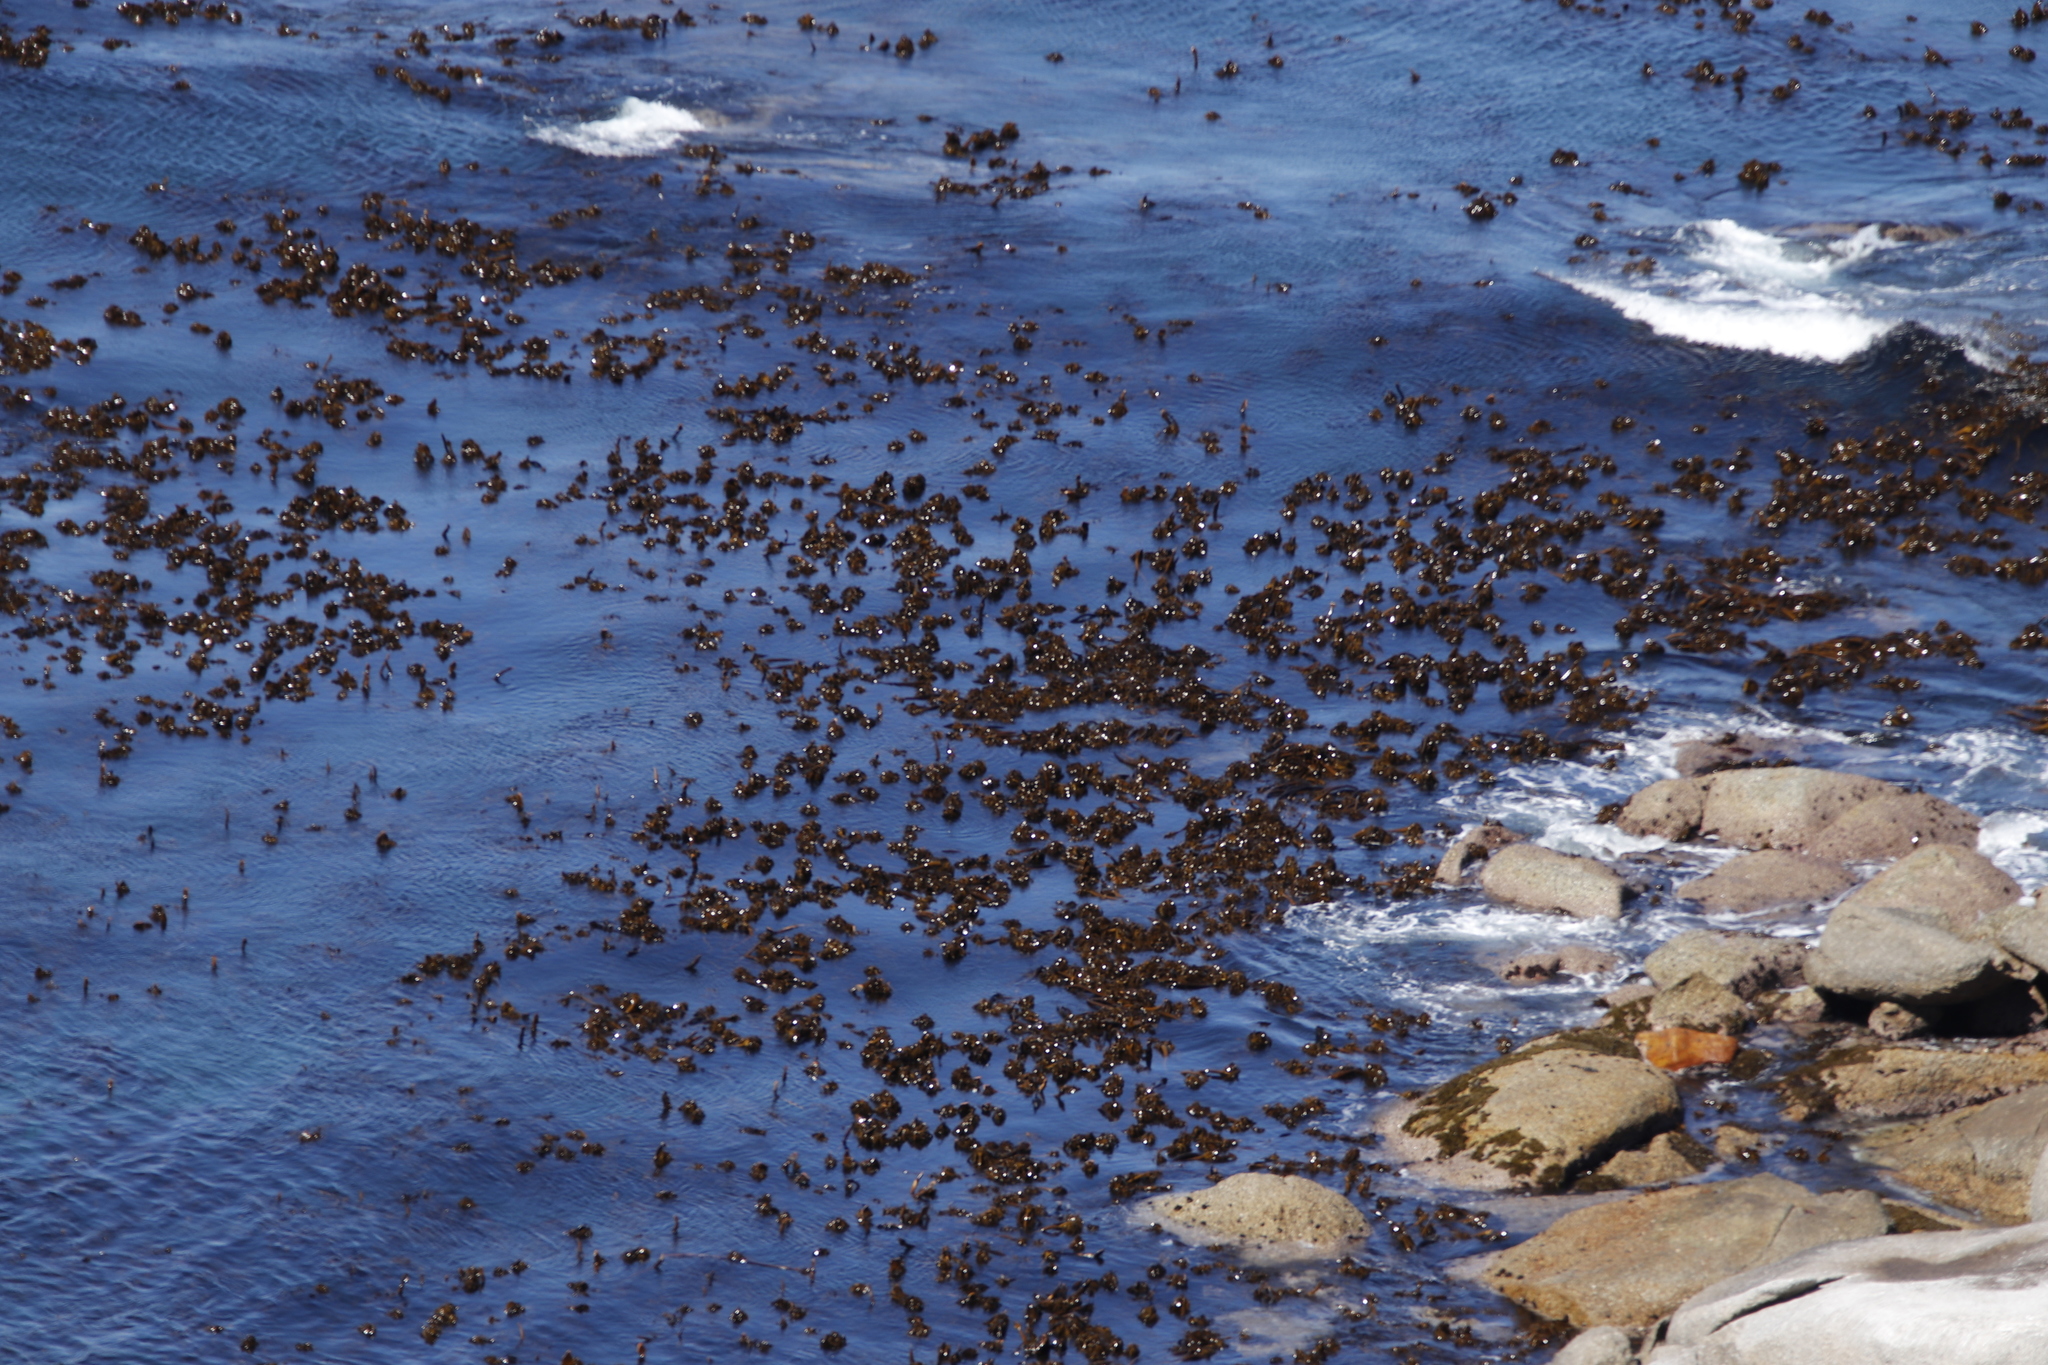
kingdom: Chromista
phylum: Ochrophyta
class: Phaeophyceae
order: Laminariales
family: Lessoniaceae
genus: Ecklonia
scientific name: Ecklonia
